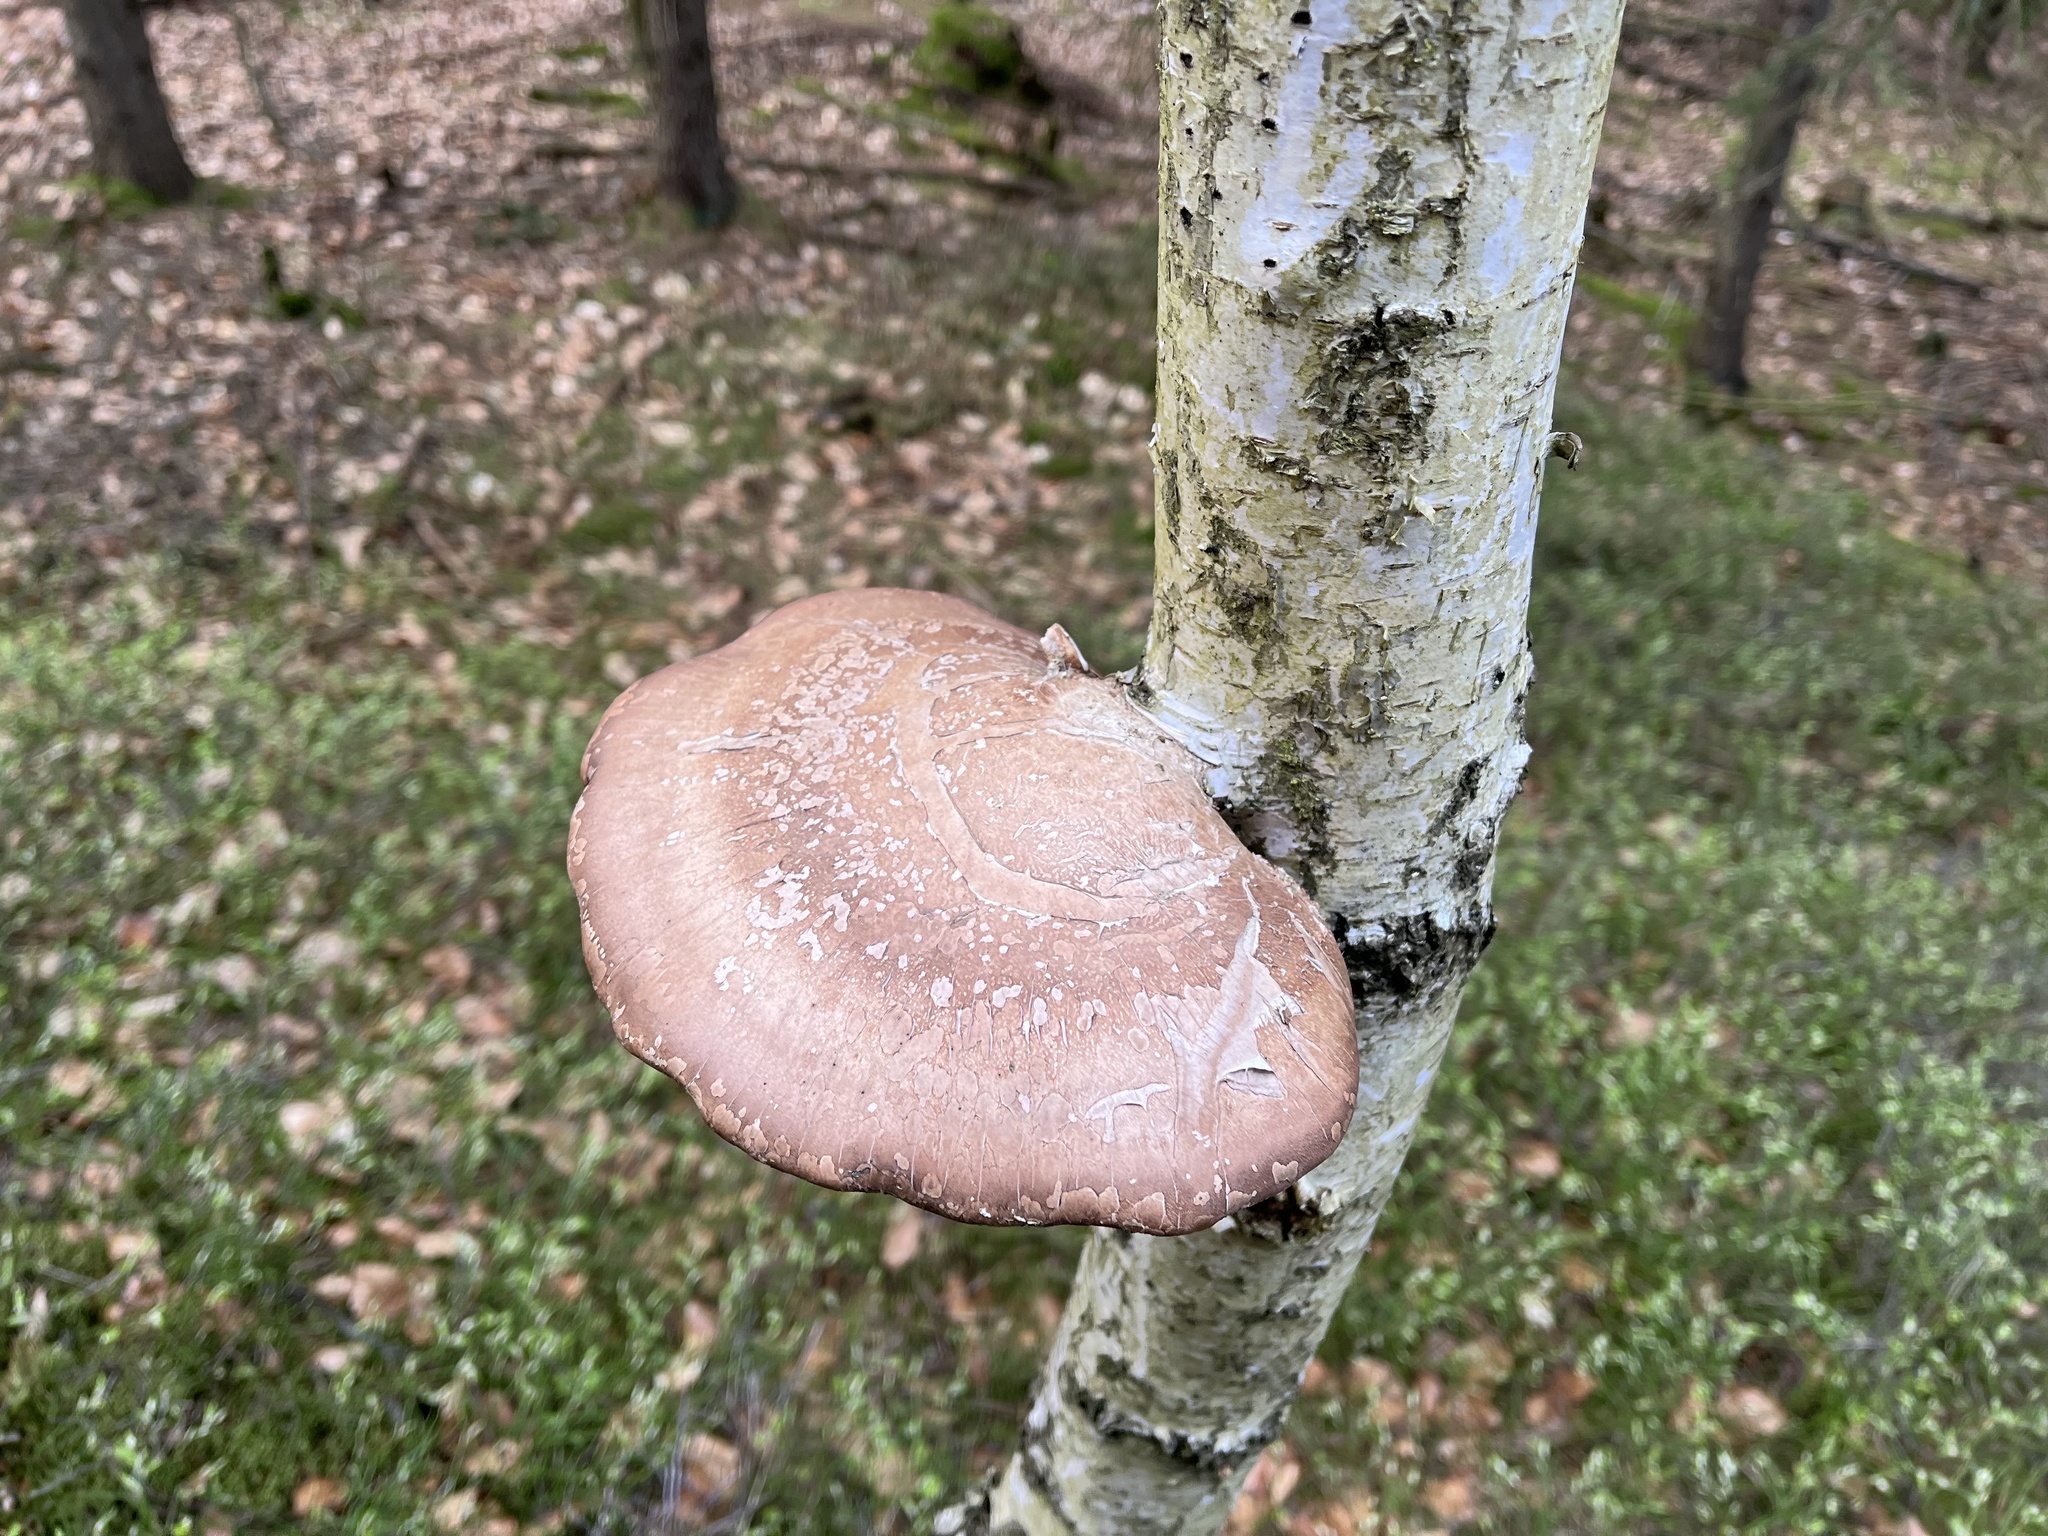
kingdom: Fungi
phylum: Basidiomycota
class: Agaricomycetes
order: Polyporales
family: Fomitopsidaceae
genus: Fomitopsis
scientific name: Fomitopsis betulina
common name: Birch polypore
